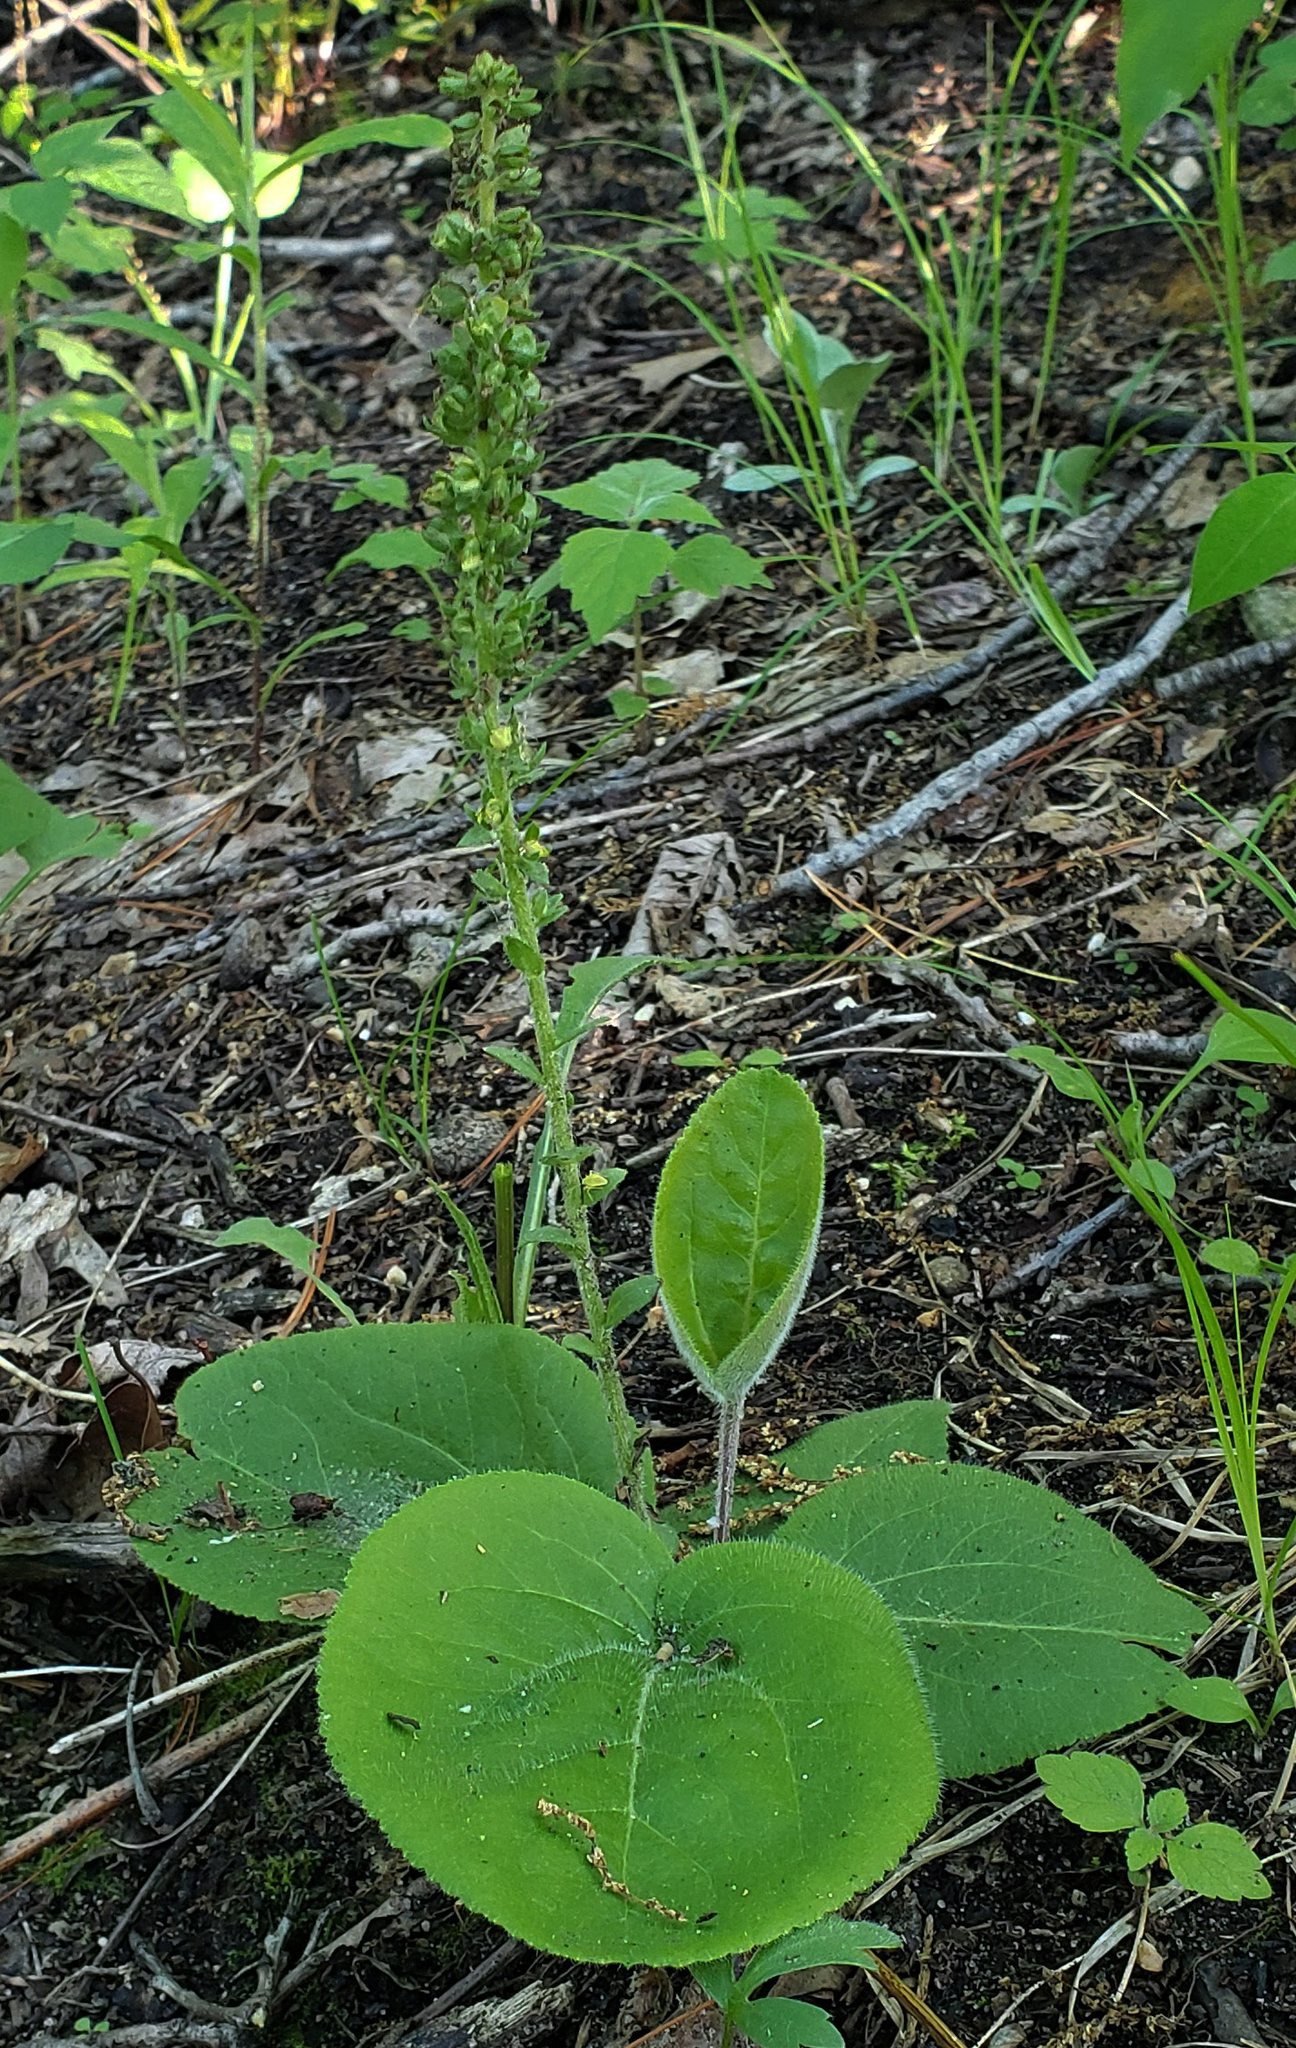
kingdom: Plantae
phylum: Tracheophyta
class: Magnoliopsida
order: Lamiales
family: Plantaginaceae
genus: Synthyris
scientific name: Synthyris bullii
